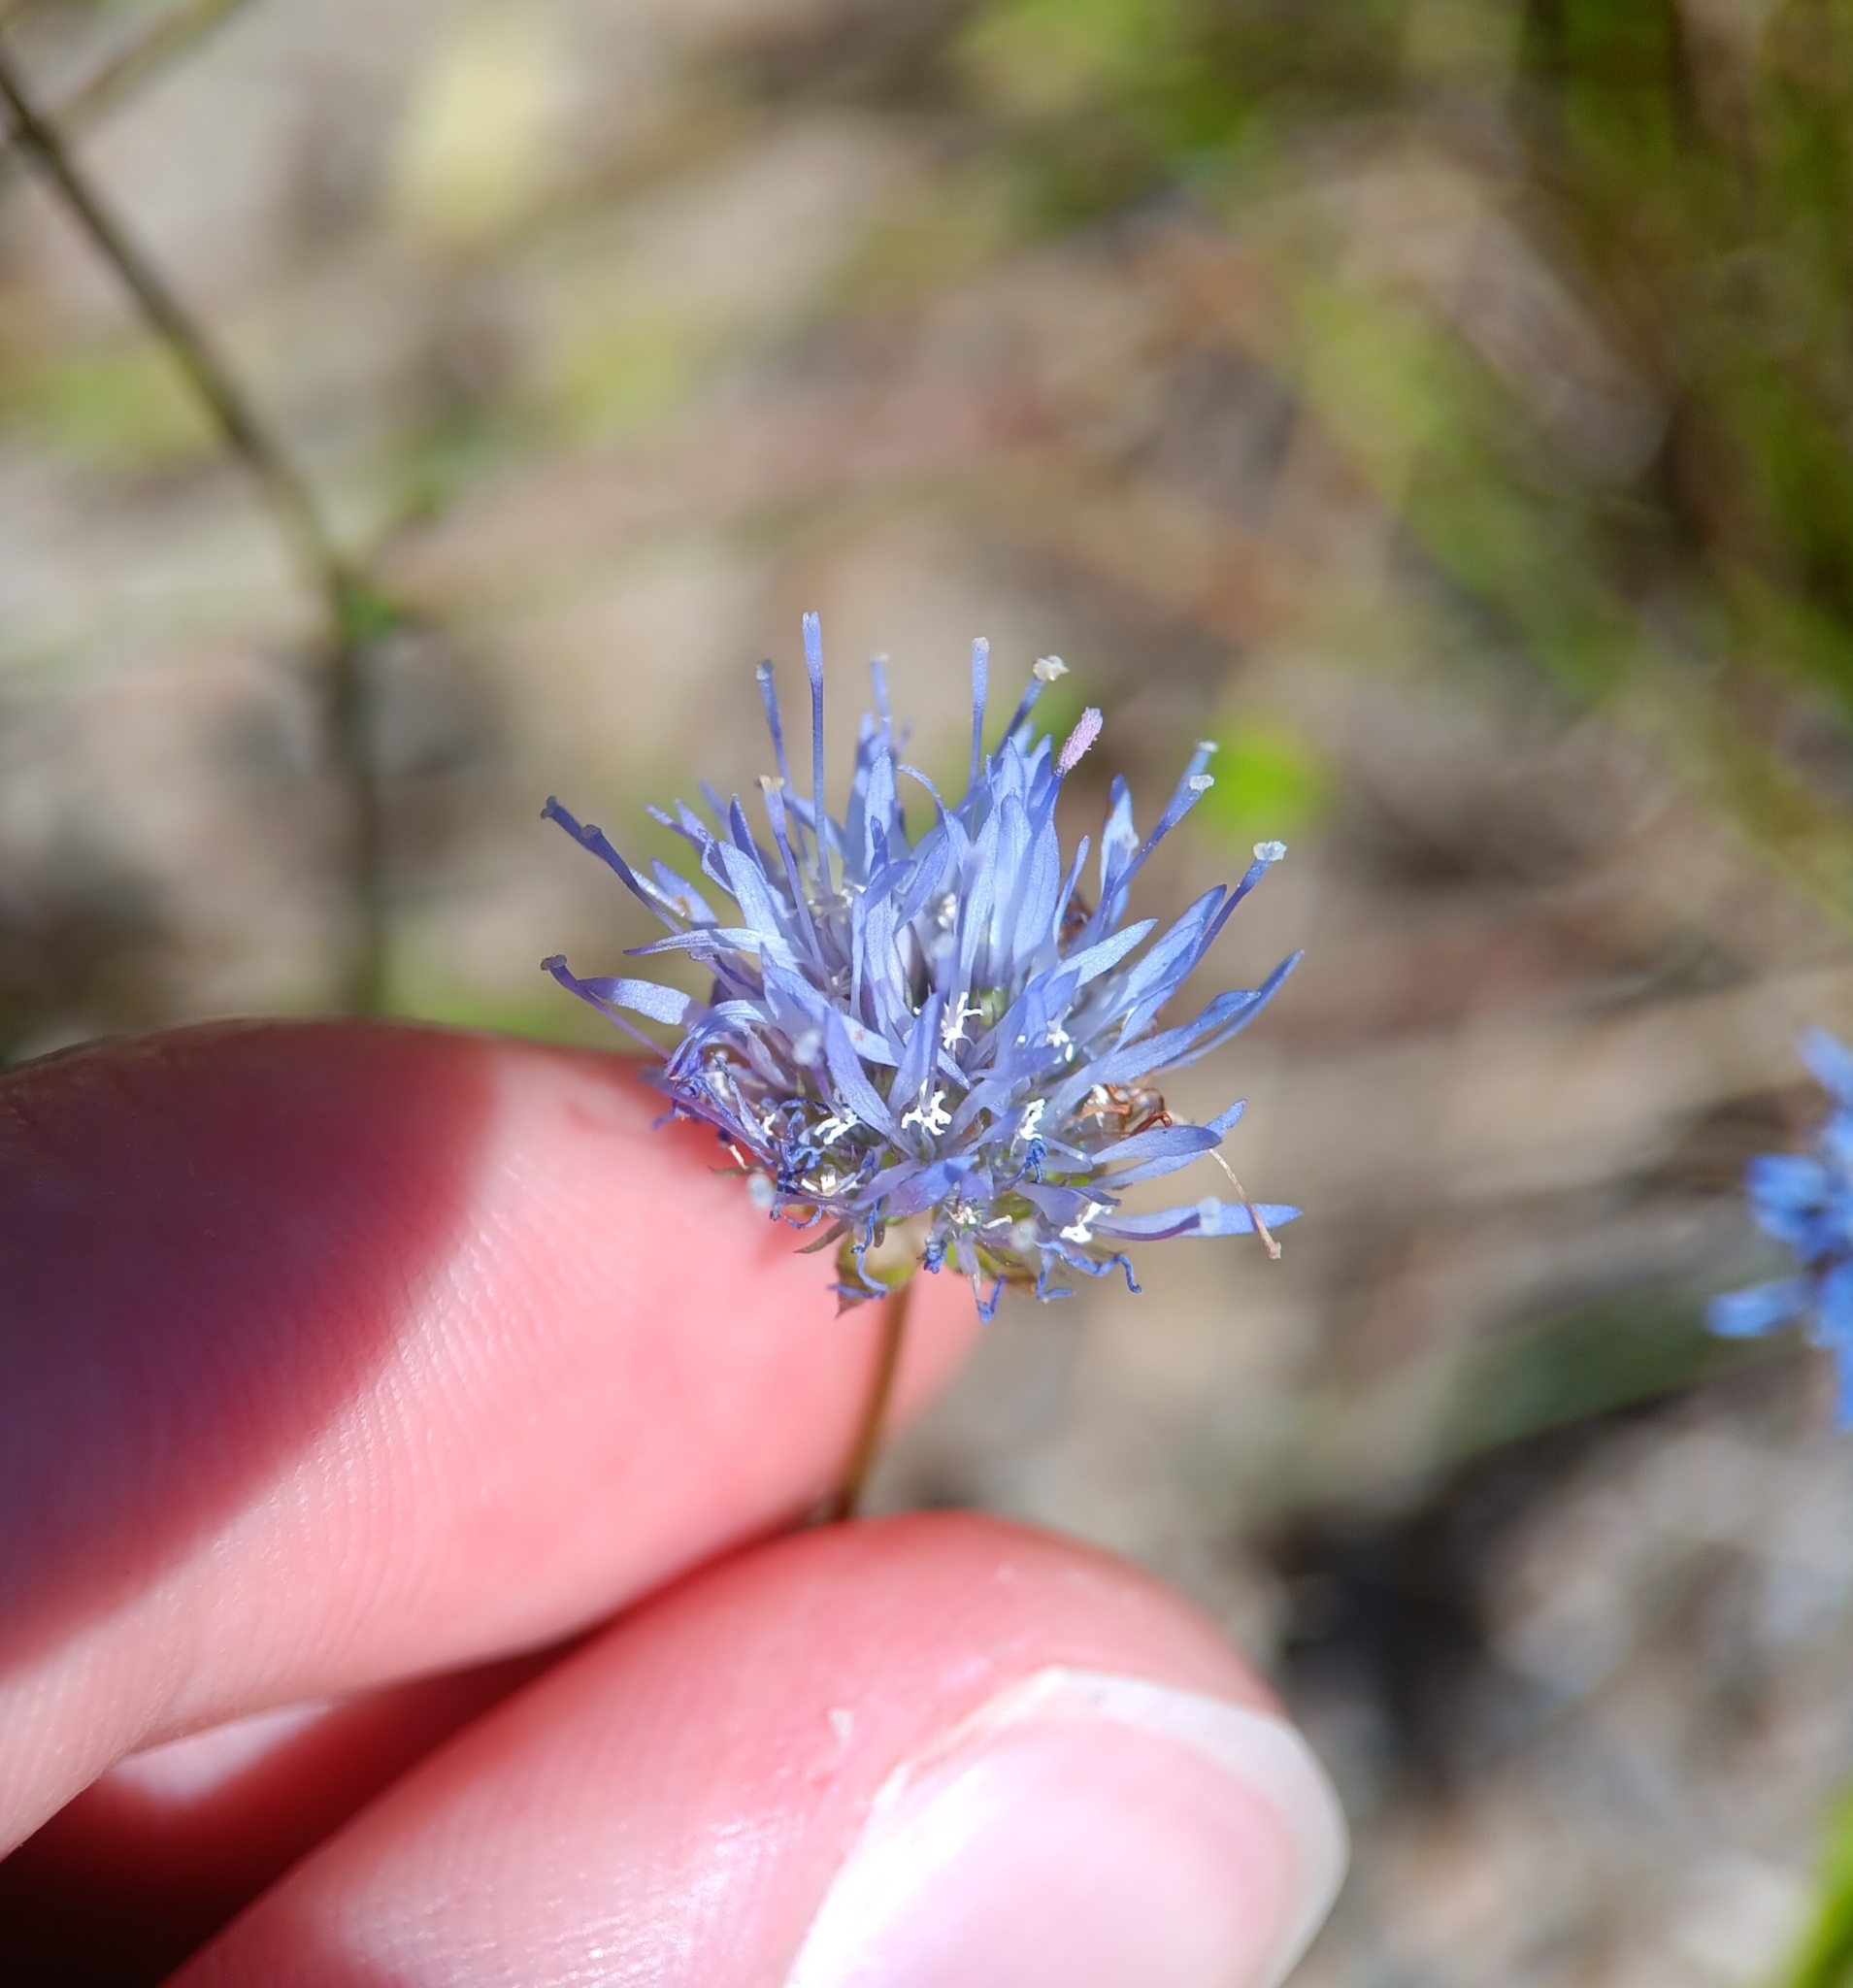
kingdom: Plantae
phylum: Tracheophyta
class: Magnoliopsida
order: Asterales
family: Campanulaceae
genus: Jasione
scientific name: Jasione montana
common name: Sheep's-bit
